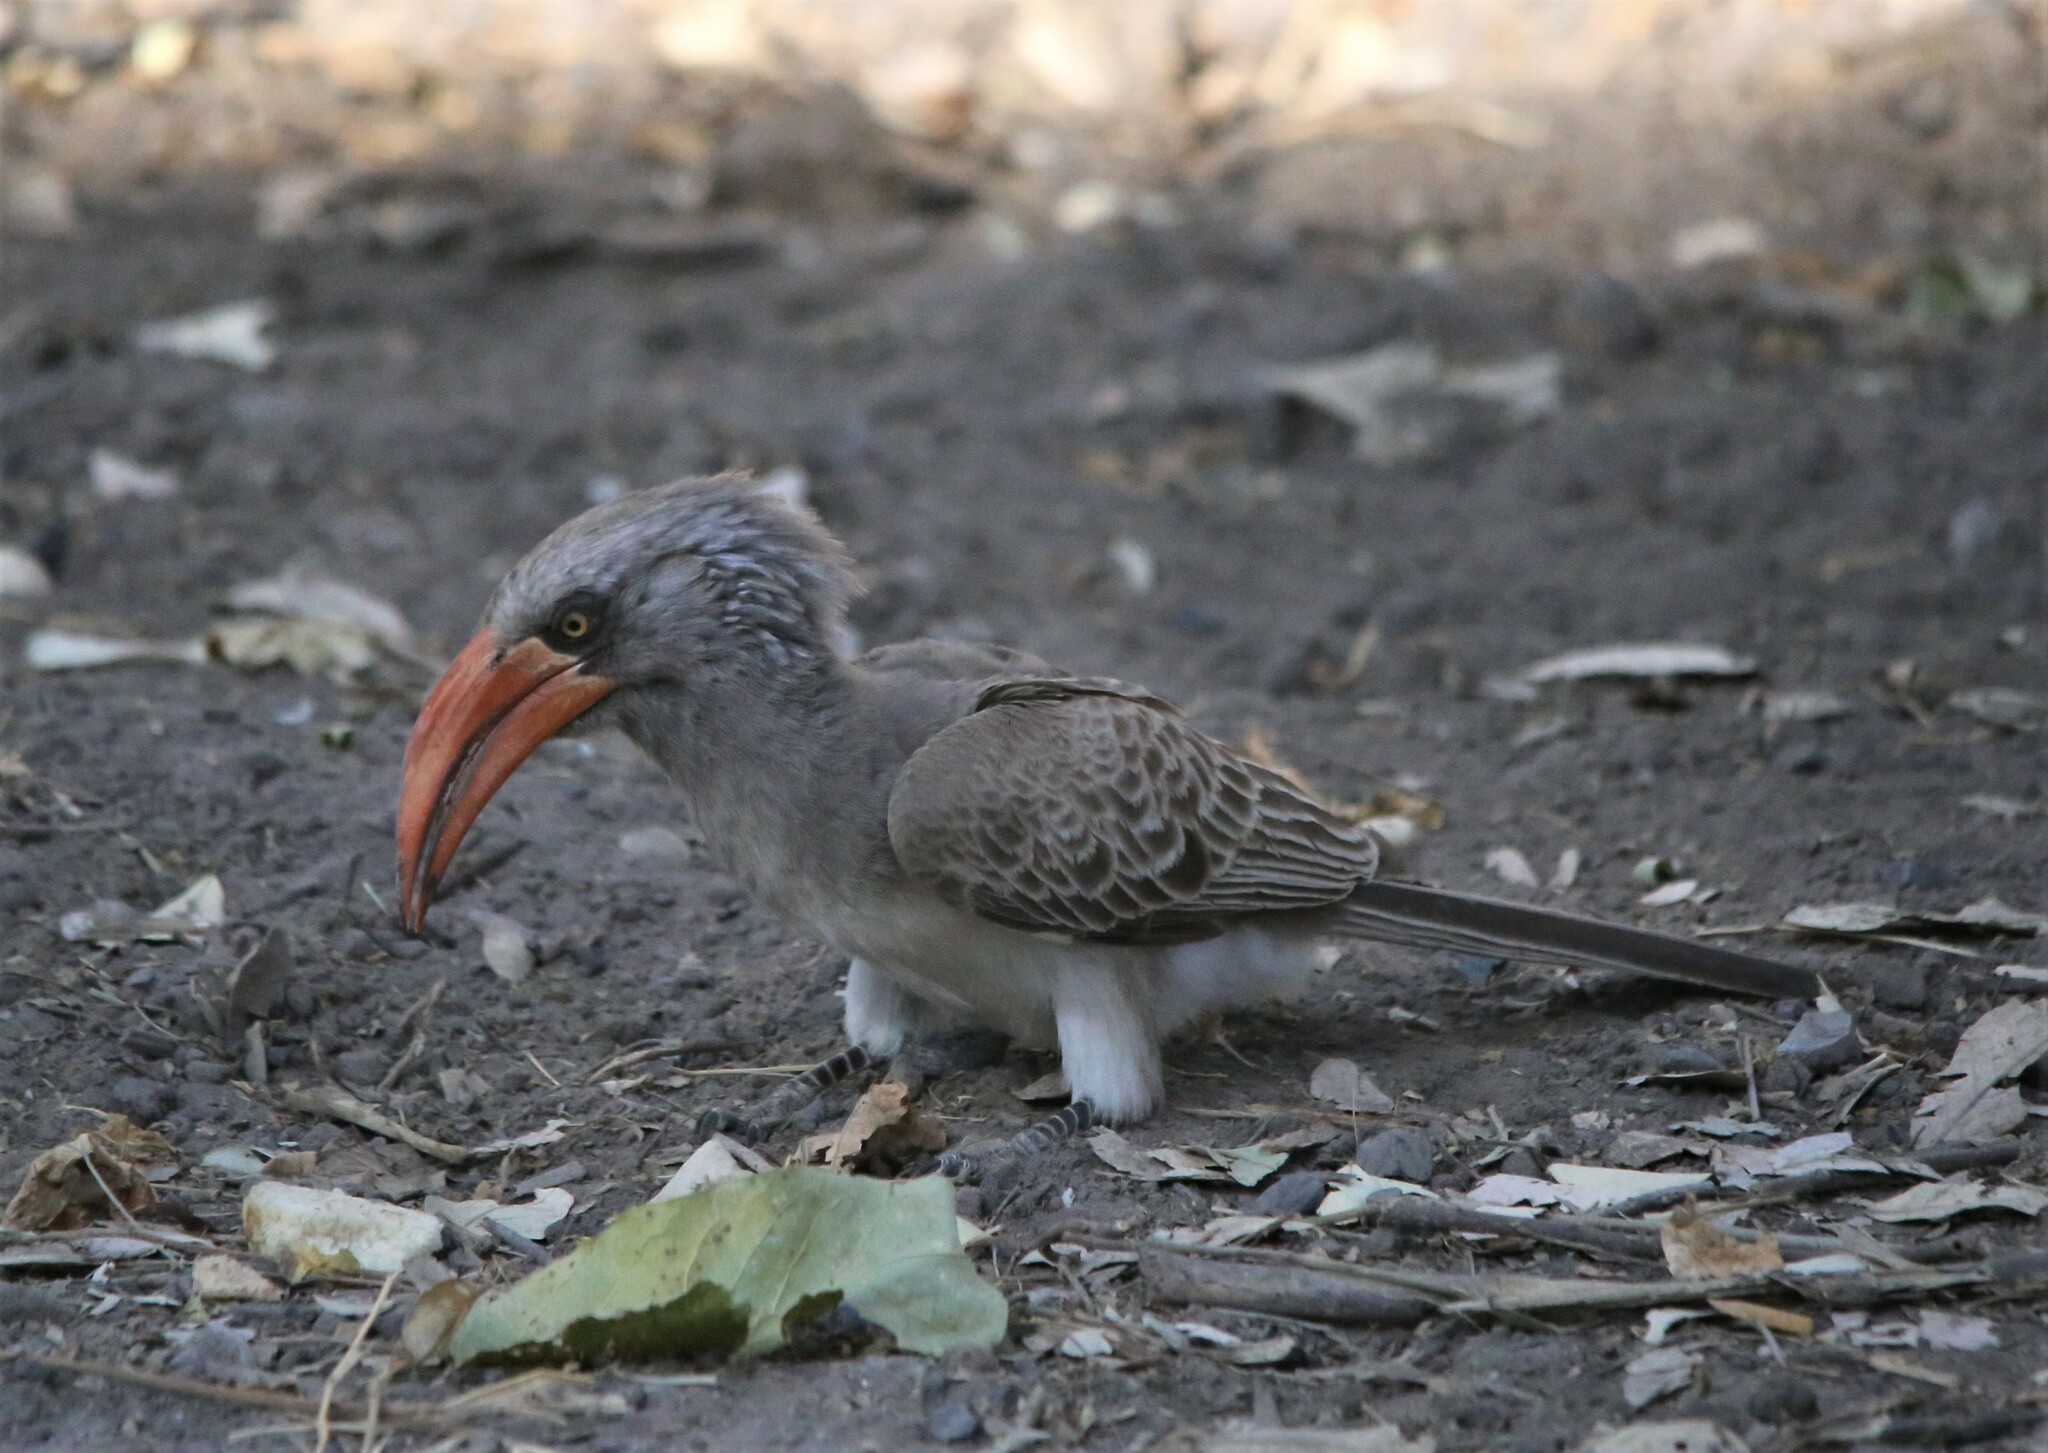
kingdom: Animalia
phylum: Chordata
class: Aves
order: Bucerotiformes
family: Bucerotidae
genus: Lophoceros
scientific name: Lophoceros bradfieldi
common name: Bradfield's hornbill
